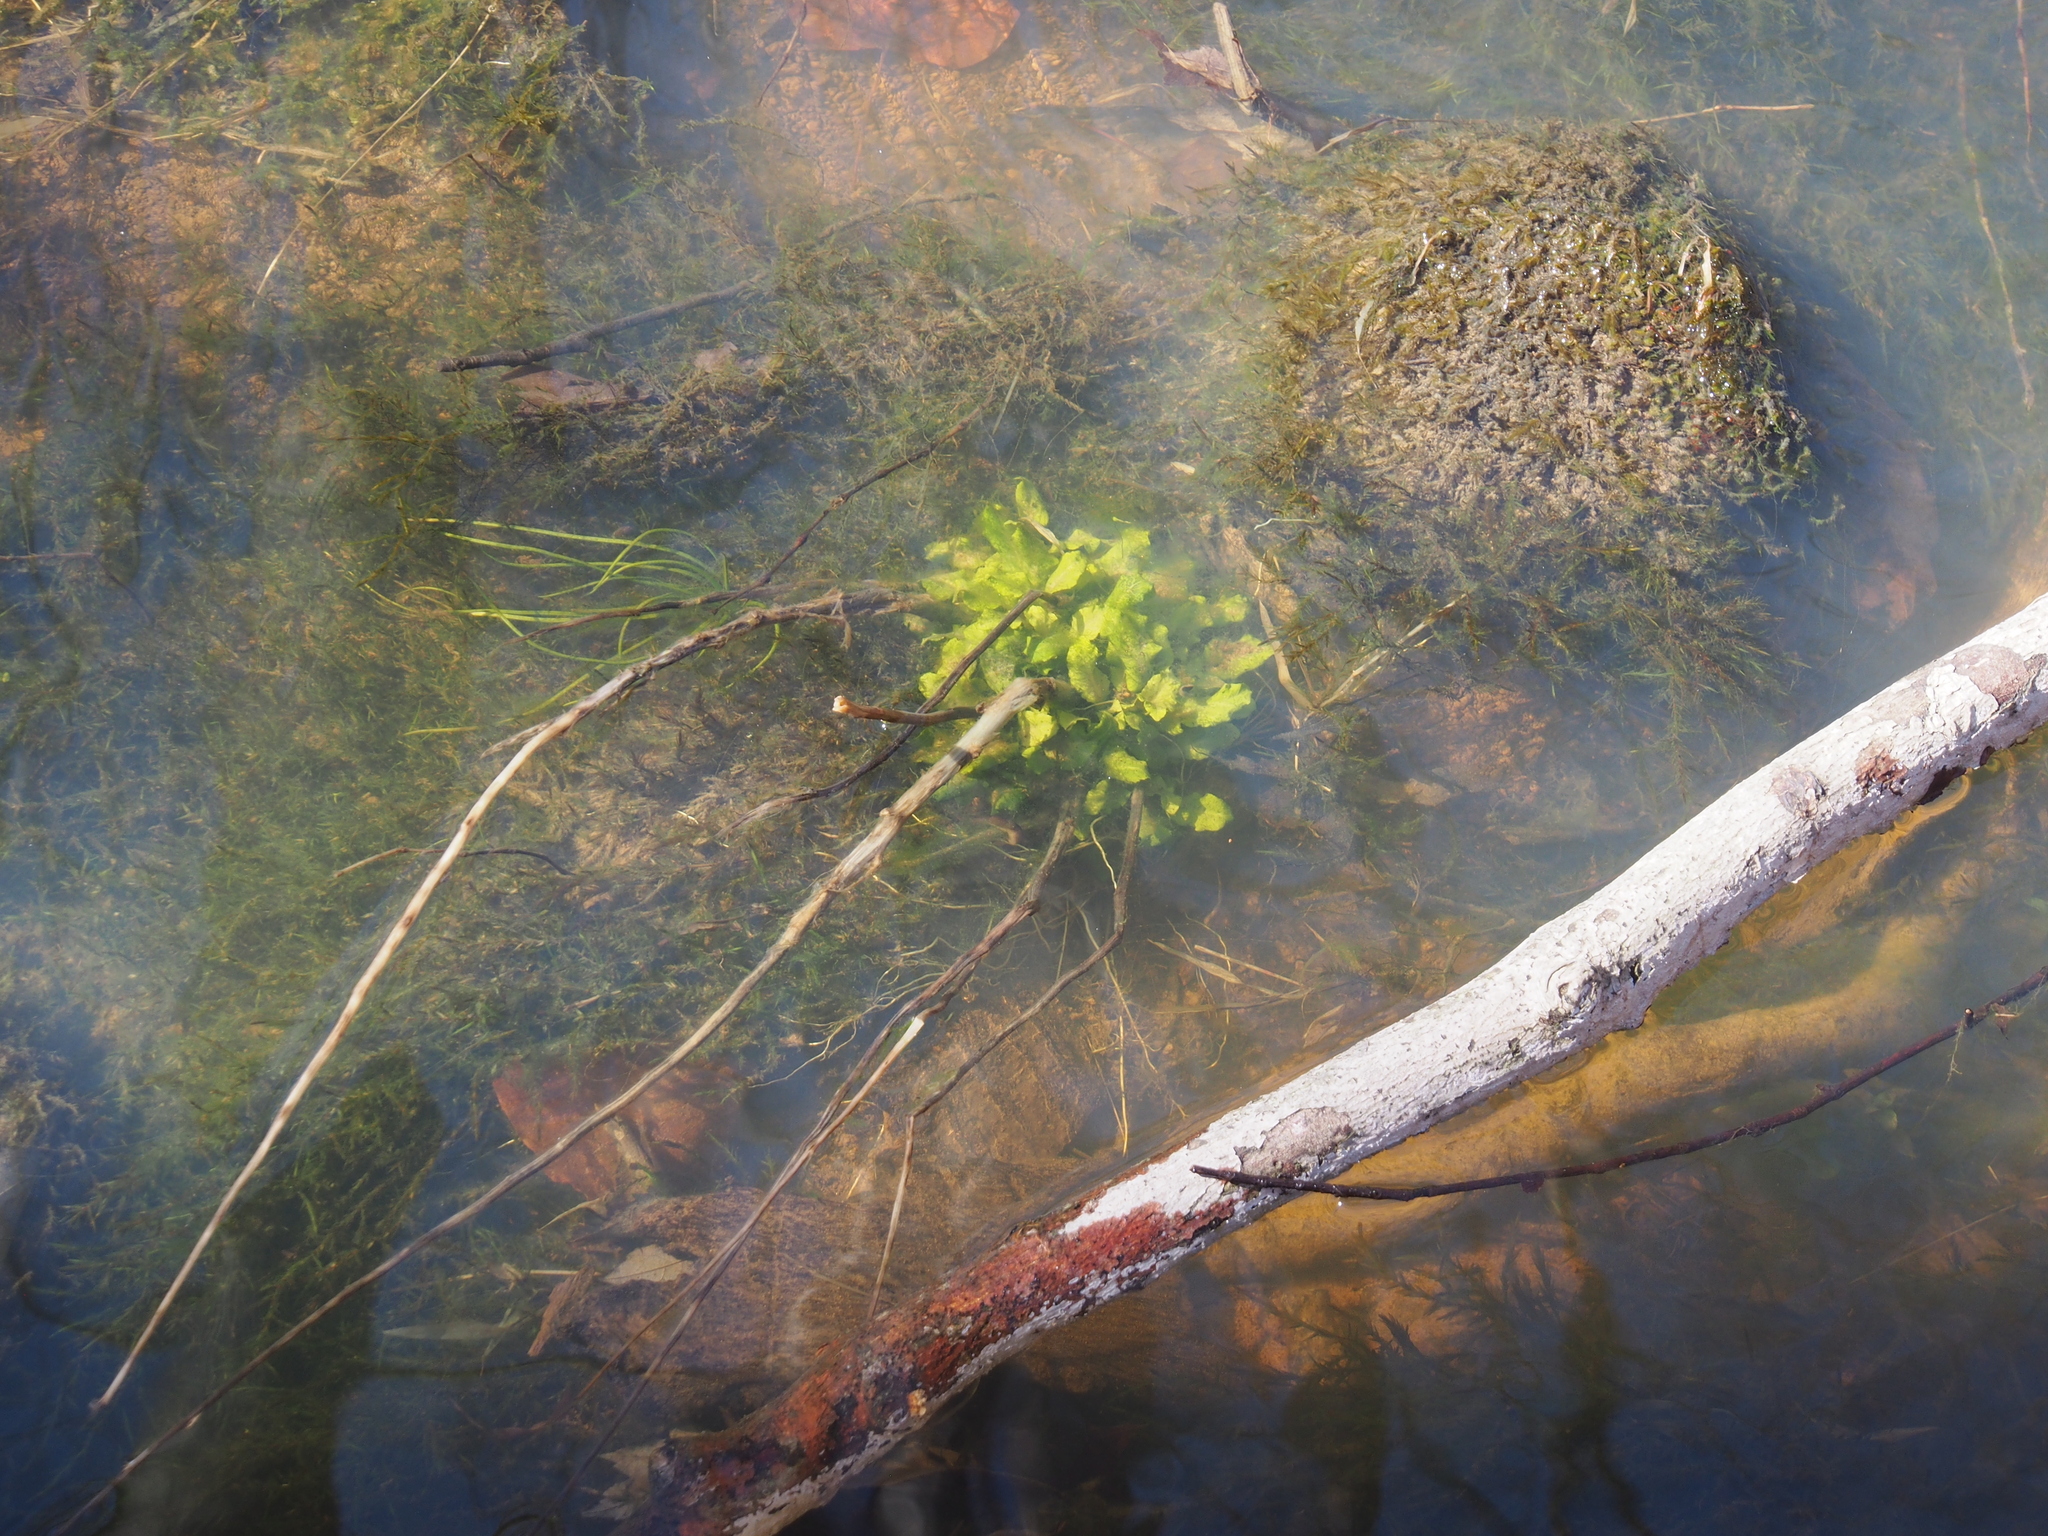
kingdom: Plantae
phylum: Tracheophyta
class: Magnoliopsida
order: Asterales
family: Campanulaceae
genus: Lobelia
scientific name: Lobelia cardinalis
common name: Cardinal flower
